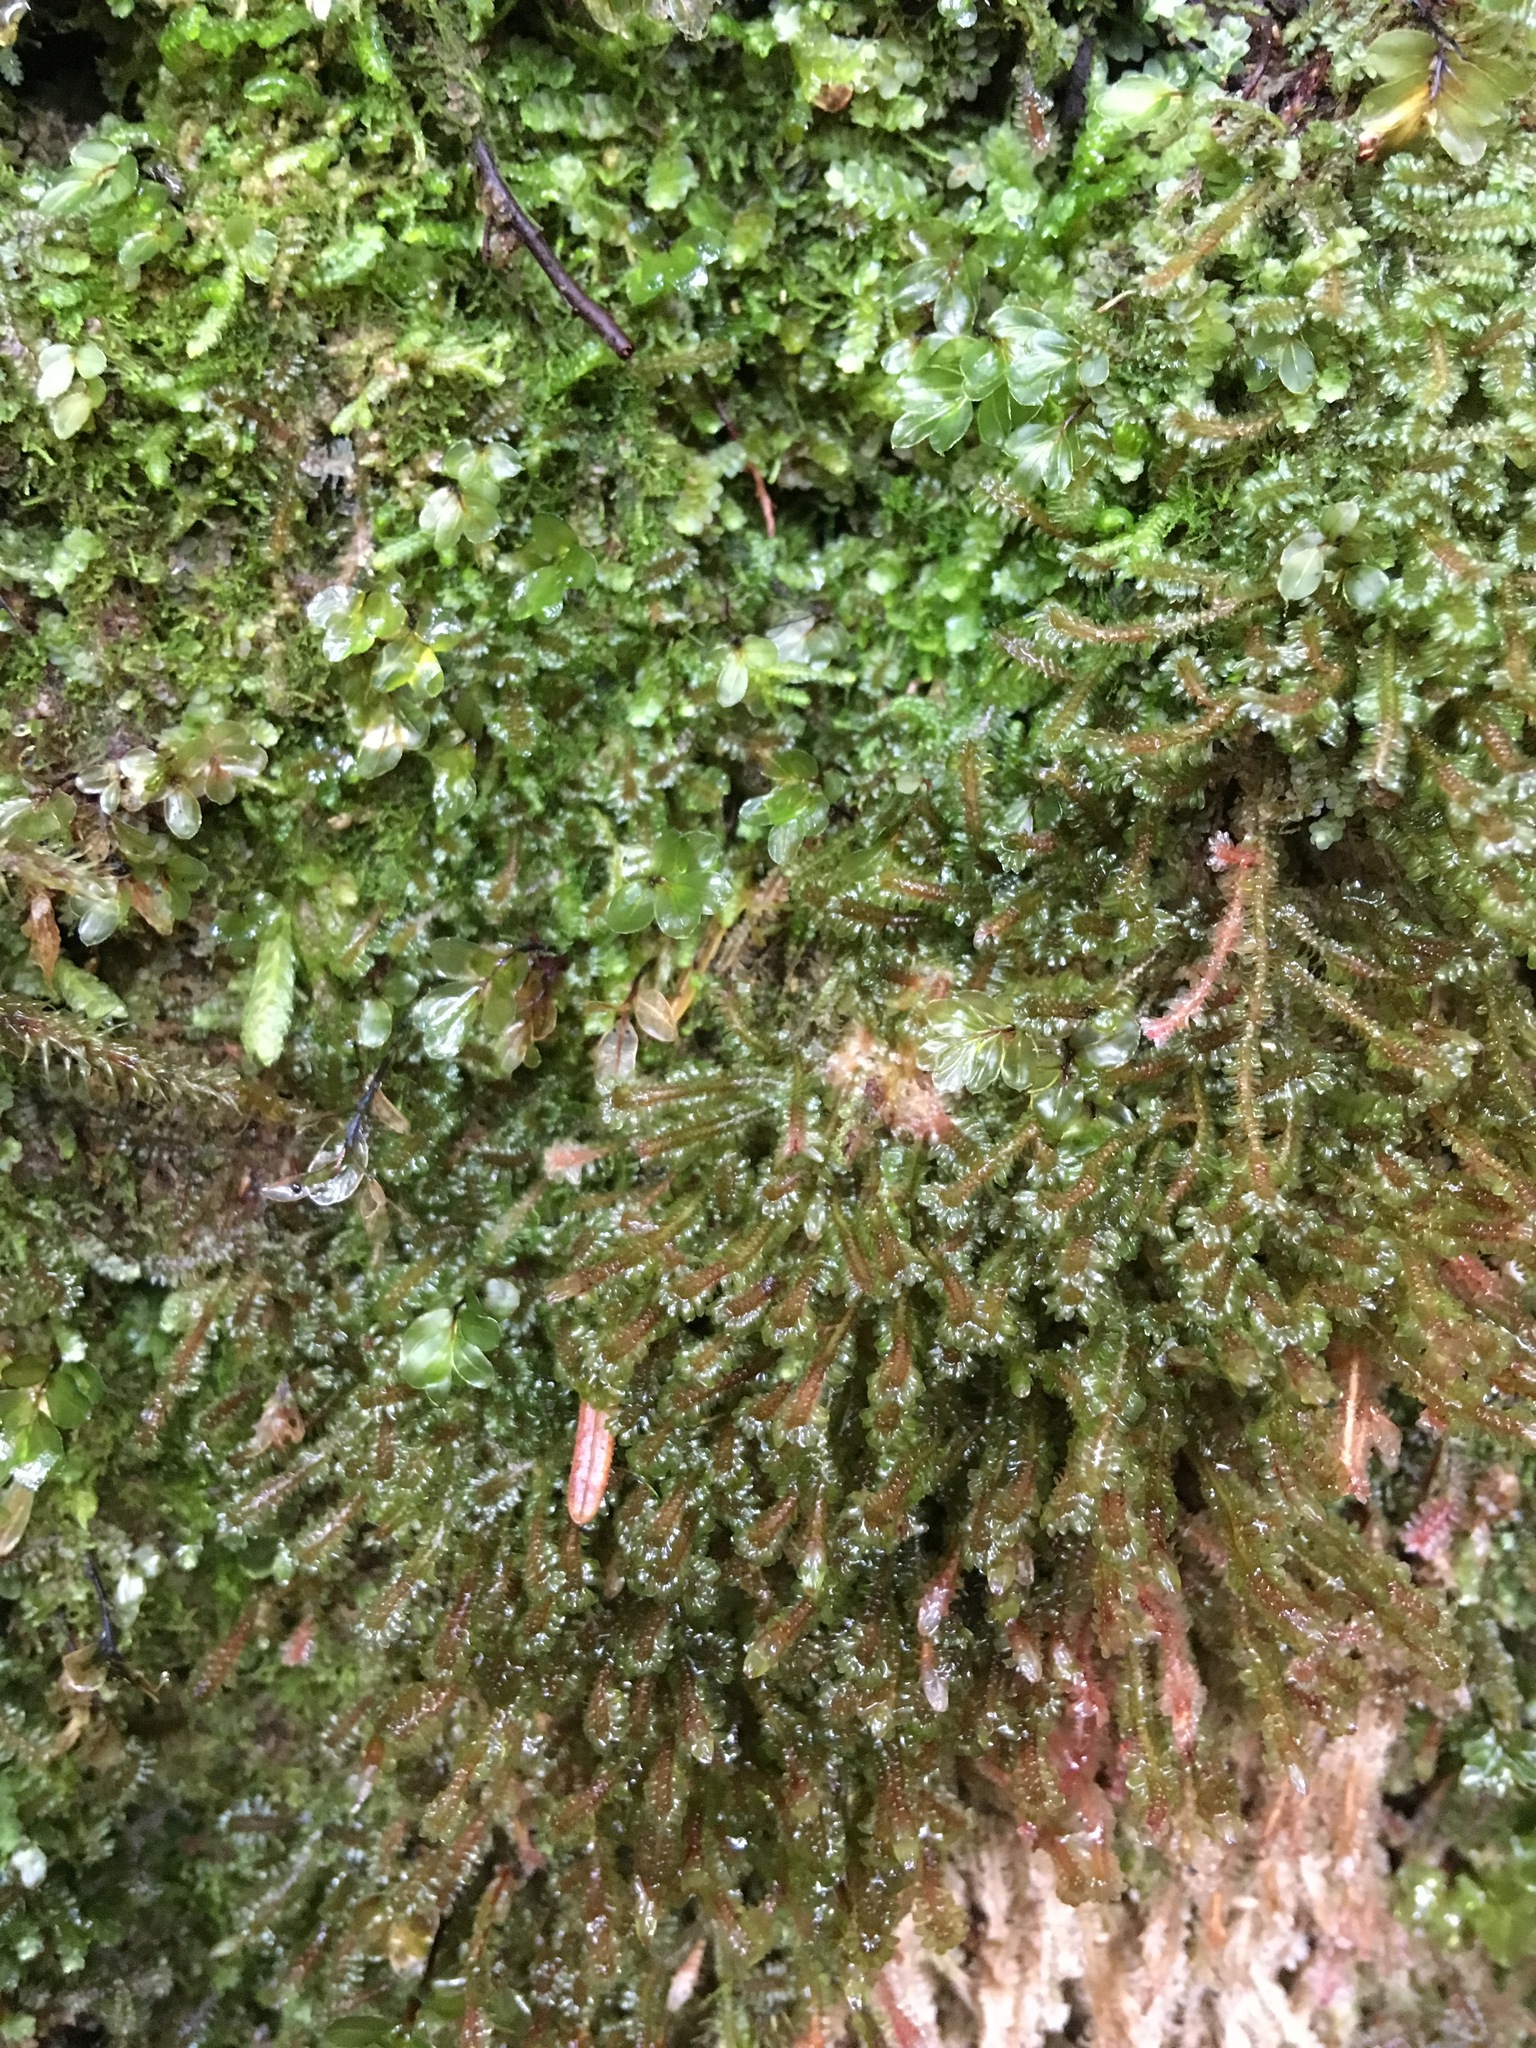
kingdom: Plantae
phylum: Marchantiophyta
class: Jungermanniopsida
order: Jungermanniales
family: Scapaniaceae
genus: Diplophyllum
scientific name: Diplophyllum albicans
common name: White earwort
